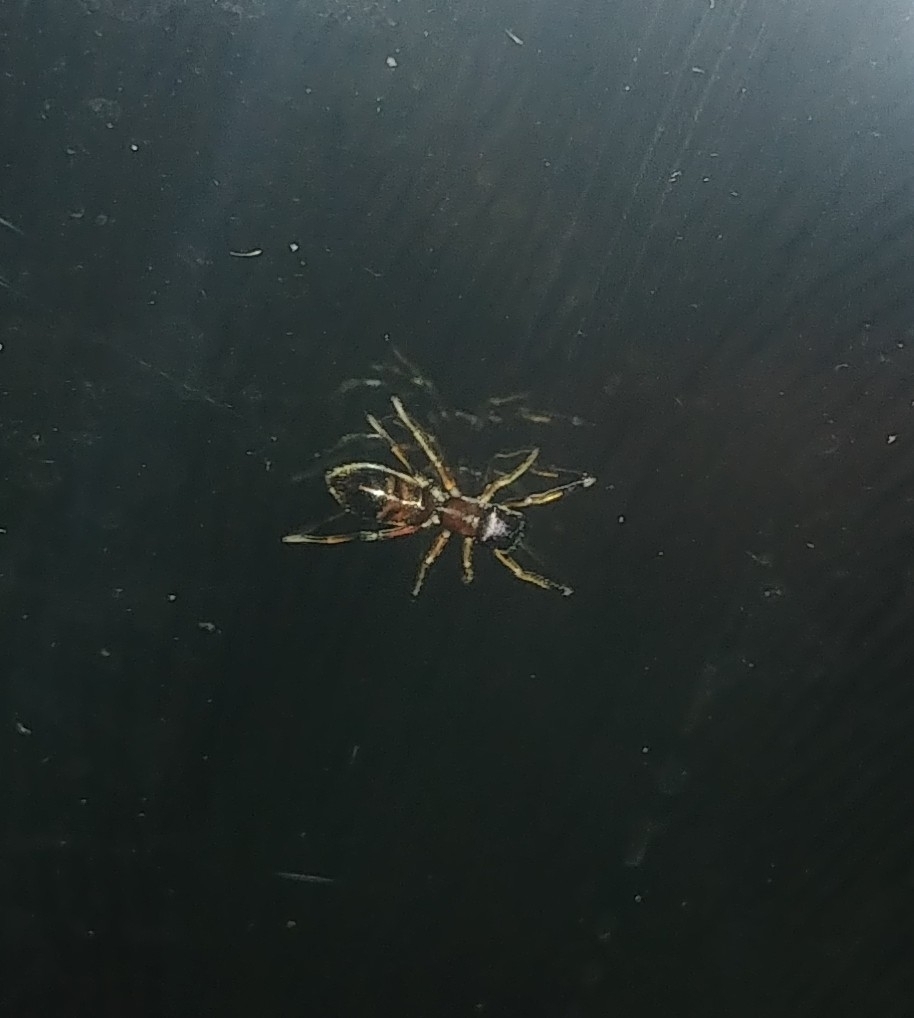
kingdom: Animalia
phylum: Arthropoda
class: Arachnida
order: Araneae
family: Salticidae
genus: Myrmarachne
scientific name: Myrmarachne formicaria
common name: Ant mimic jumping spider
